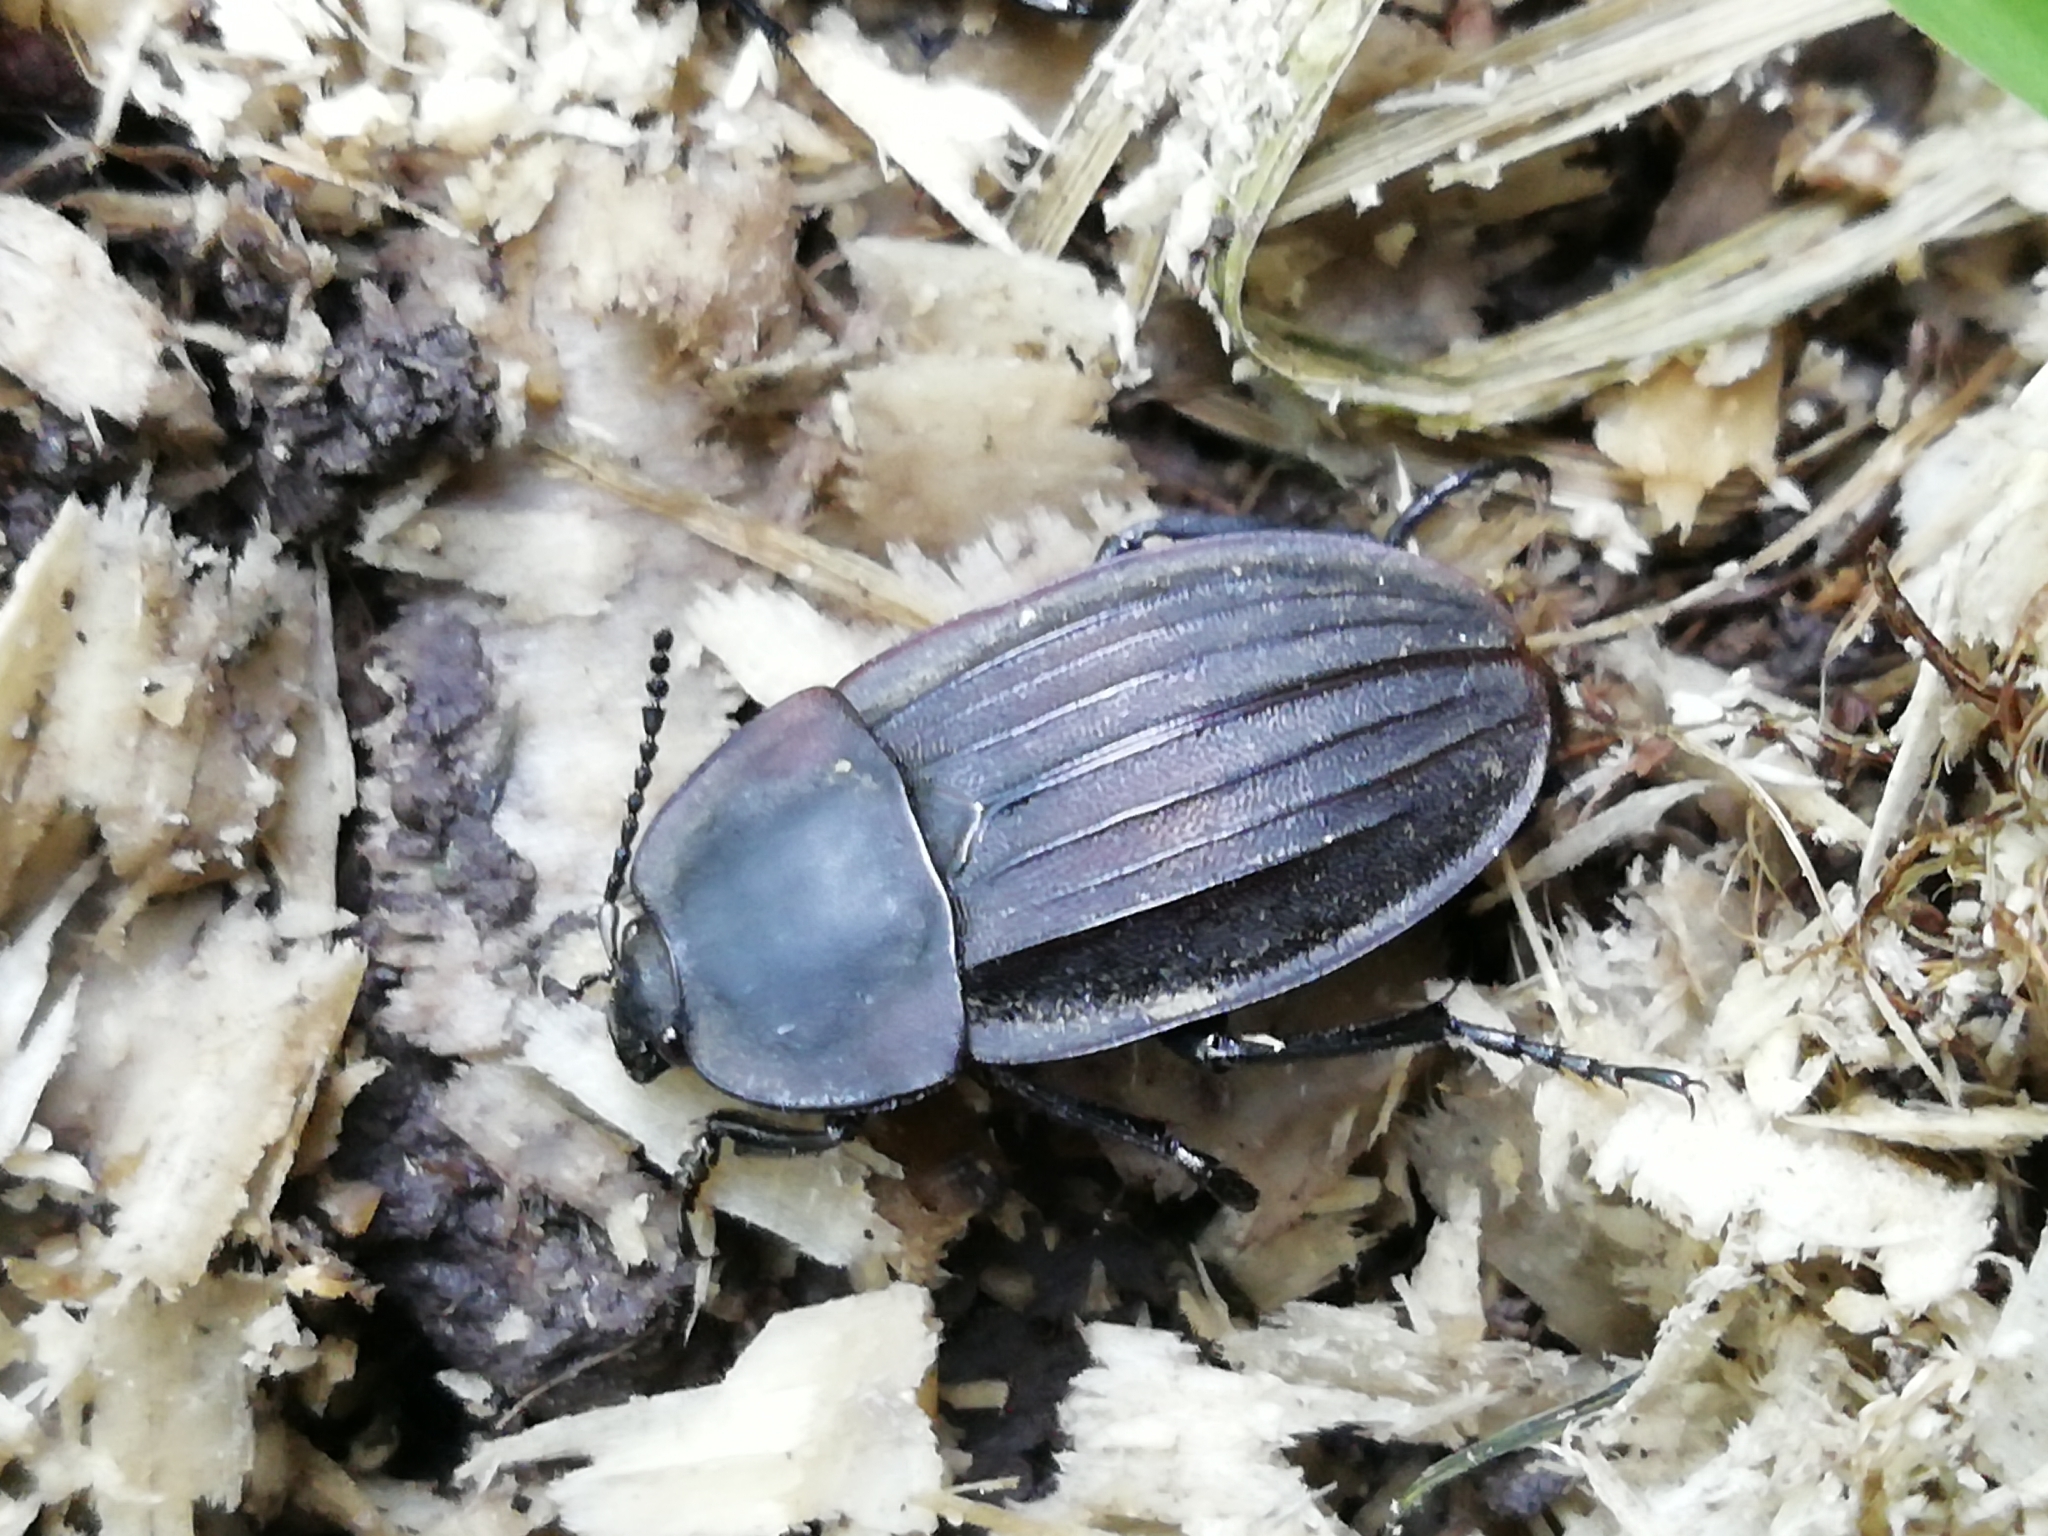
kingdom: Animalia
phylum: Arthropoda
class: Insecta
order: Coleoptera
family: Staphylinidae
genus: Silpha
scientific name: Silpha obscura
